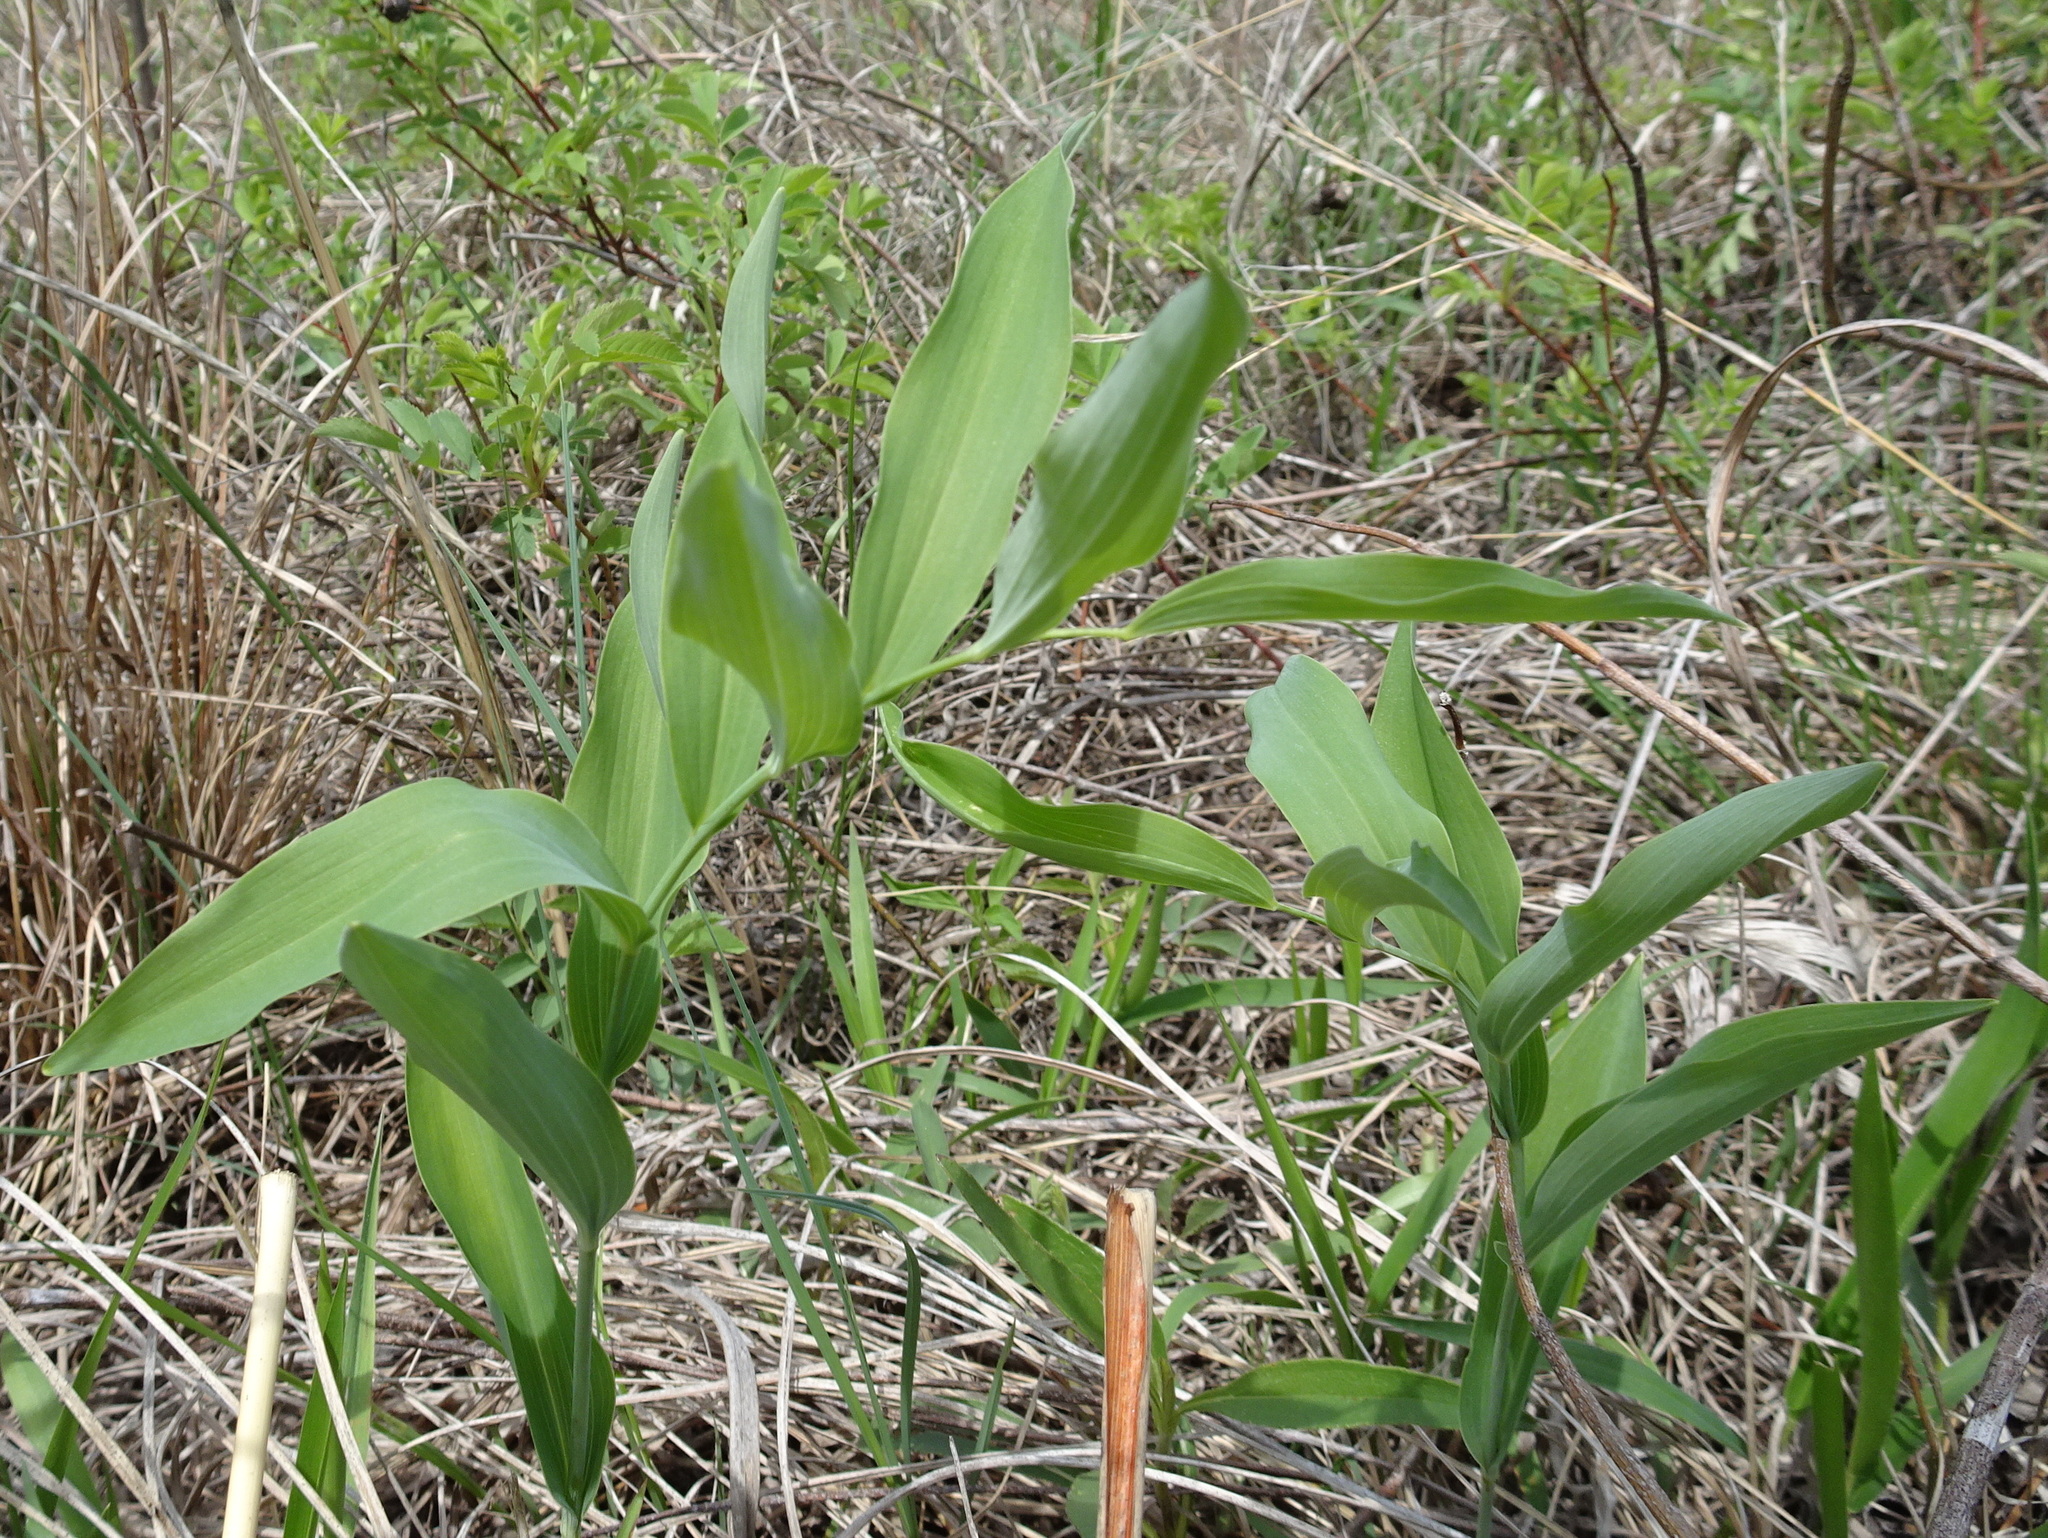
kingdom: Plantae
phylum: Tracheophyta
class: Liliopsida
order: Asparagales
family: Asparagaceae
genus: Polygonatum
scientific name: Polygonatum biflorum
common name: American solomon's-seal
